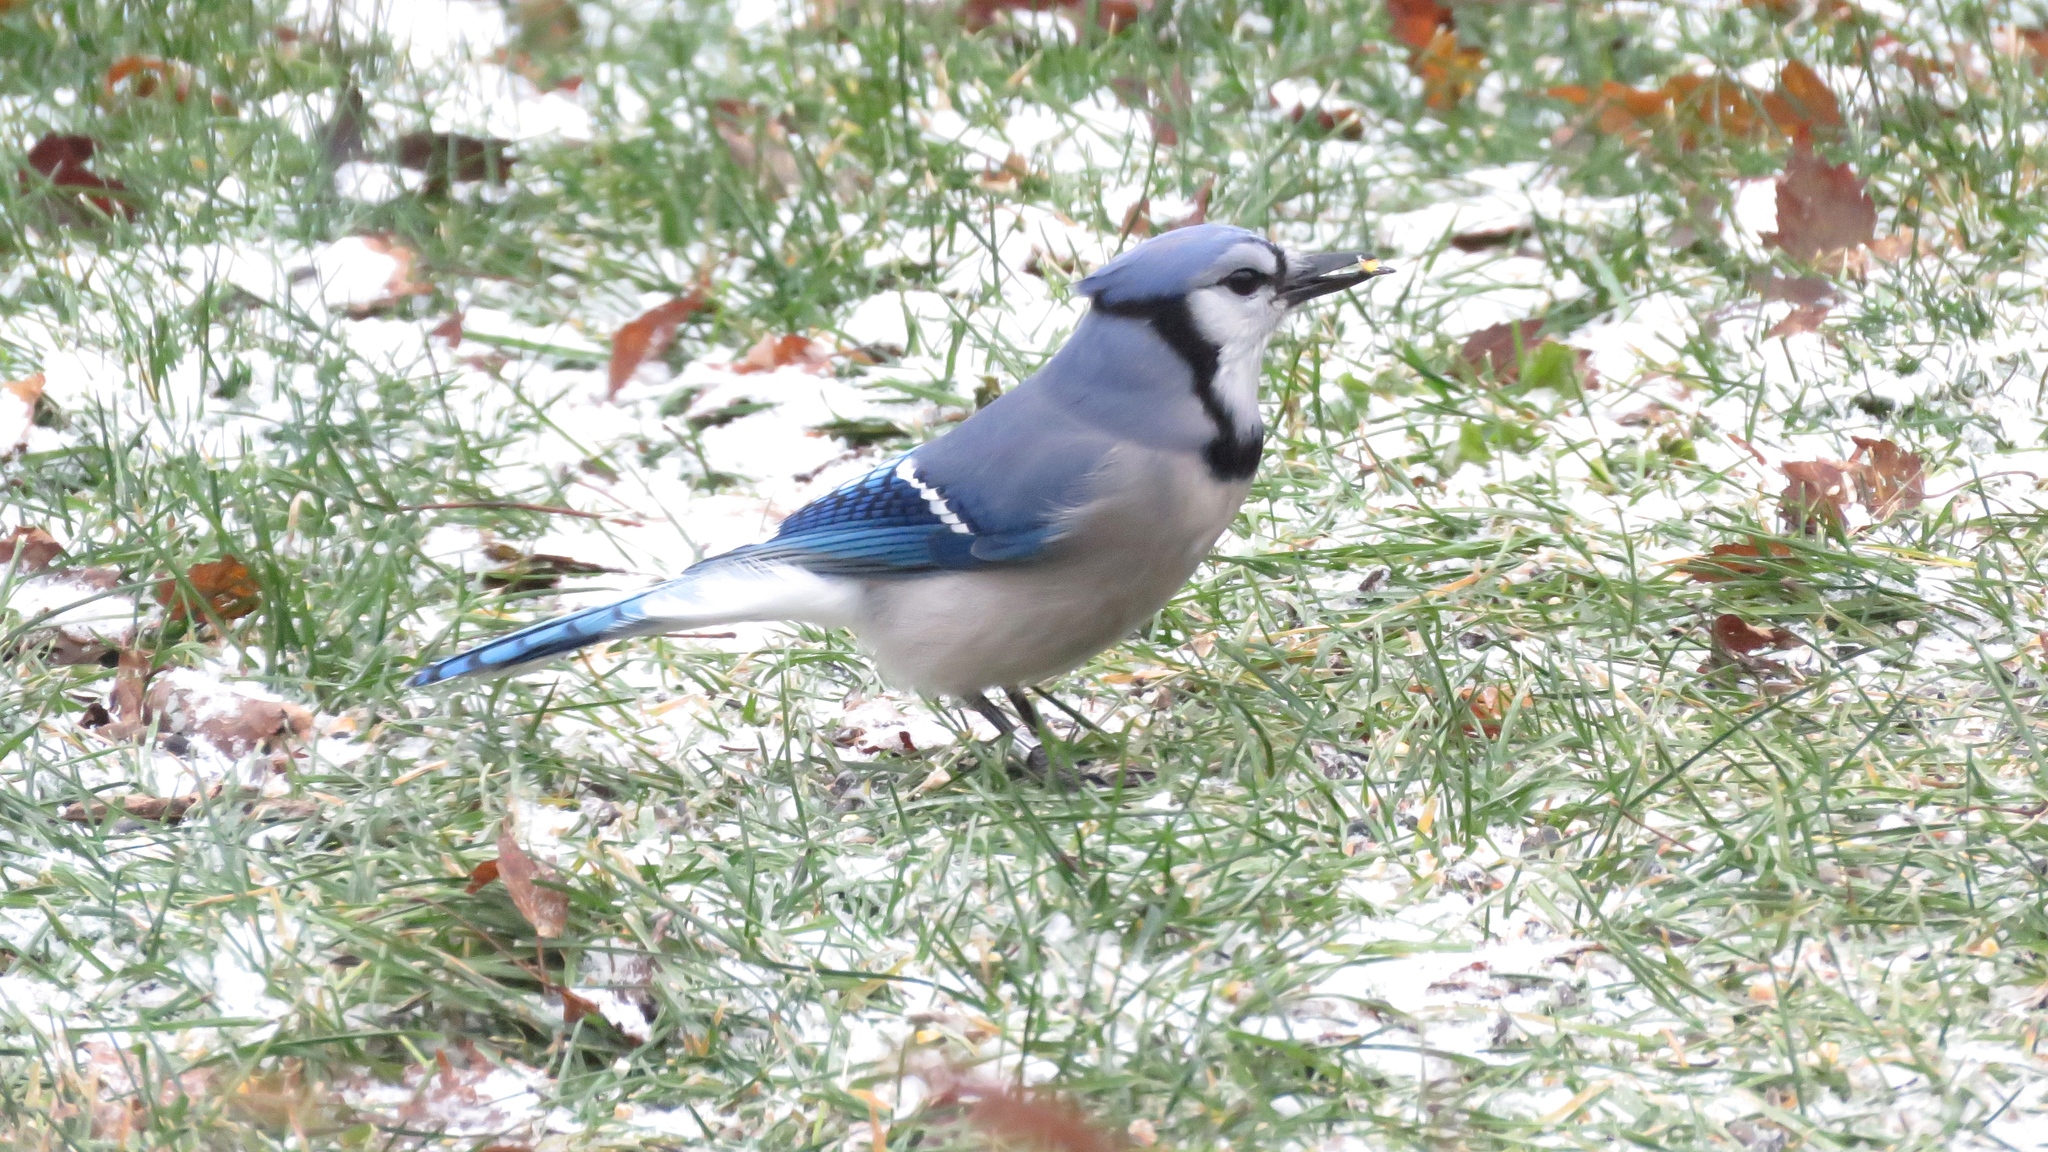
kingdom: Animalia
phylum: Chordata
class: Aves
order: Passeriformes
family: Corvidae
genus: Cyanocitta
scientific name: Cyanocitta cristata
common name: Blue jay
